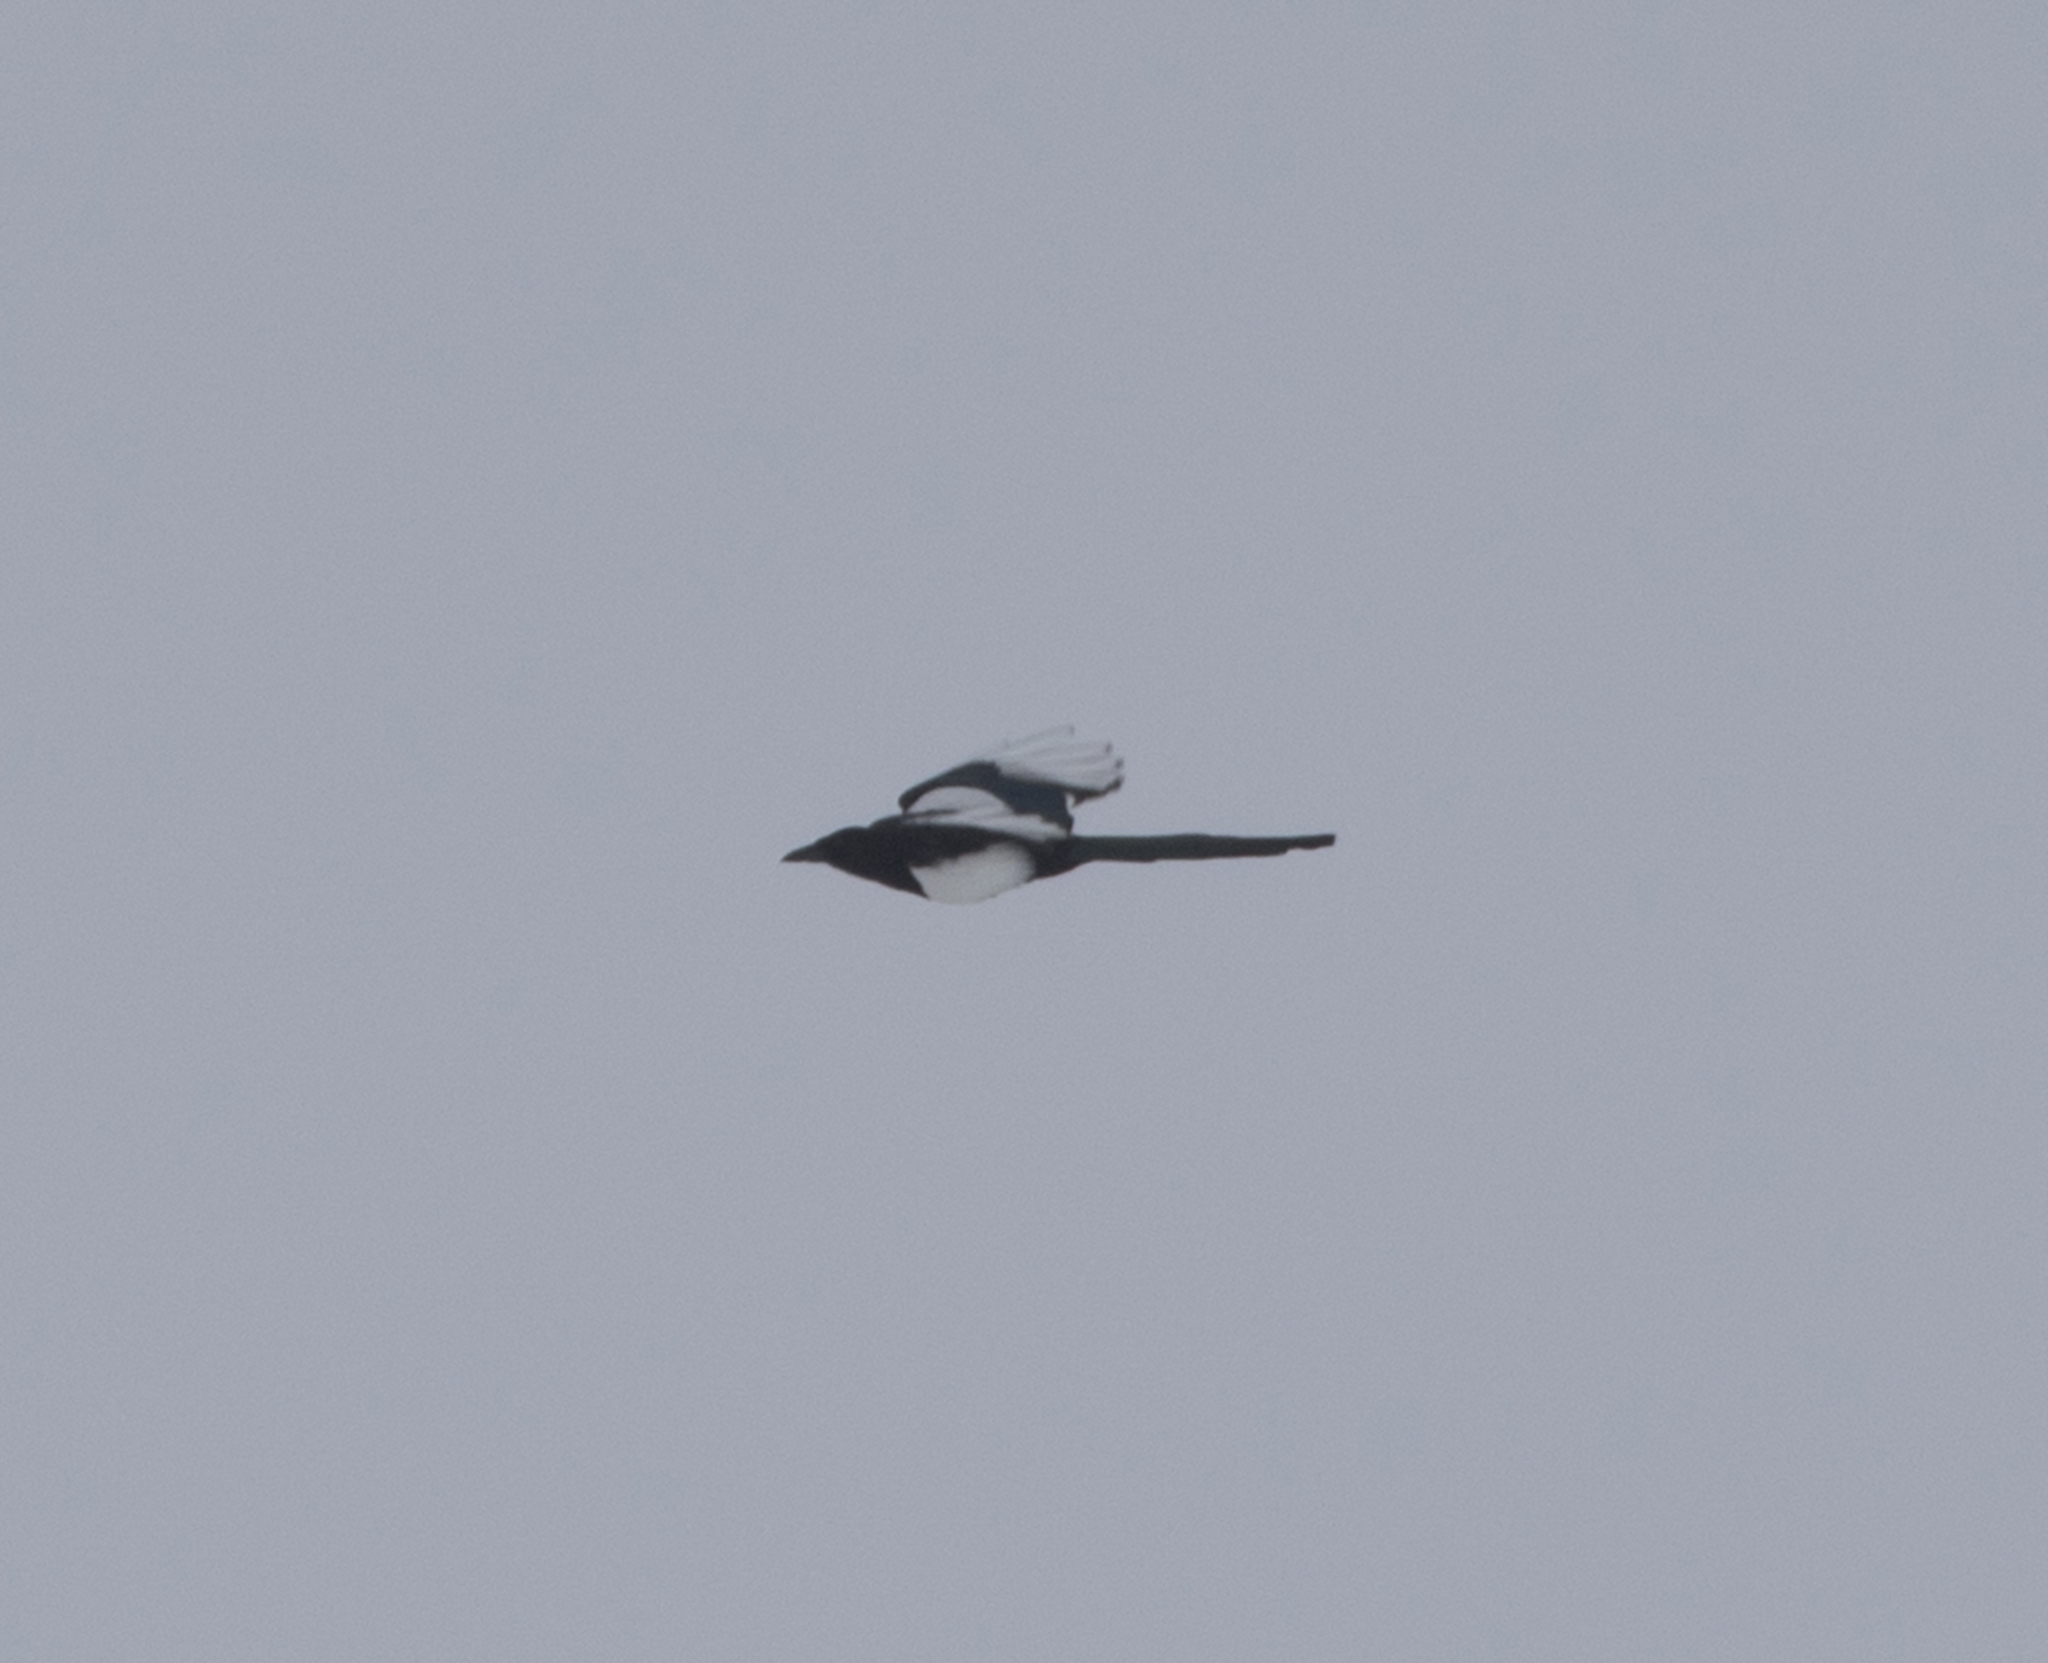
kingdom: Animalia
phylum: Chordata
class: Aves
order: Passeriformes
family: Corvidae
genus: Pica
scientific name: Pica pica
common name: Eurasian magpie
